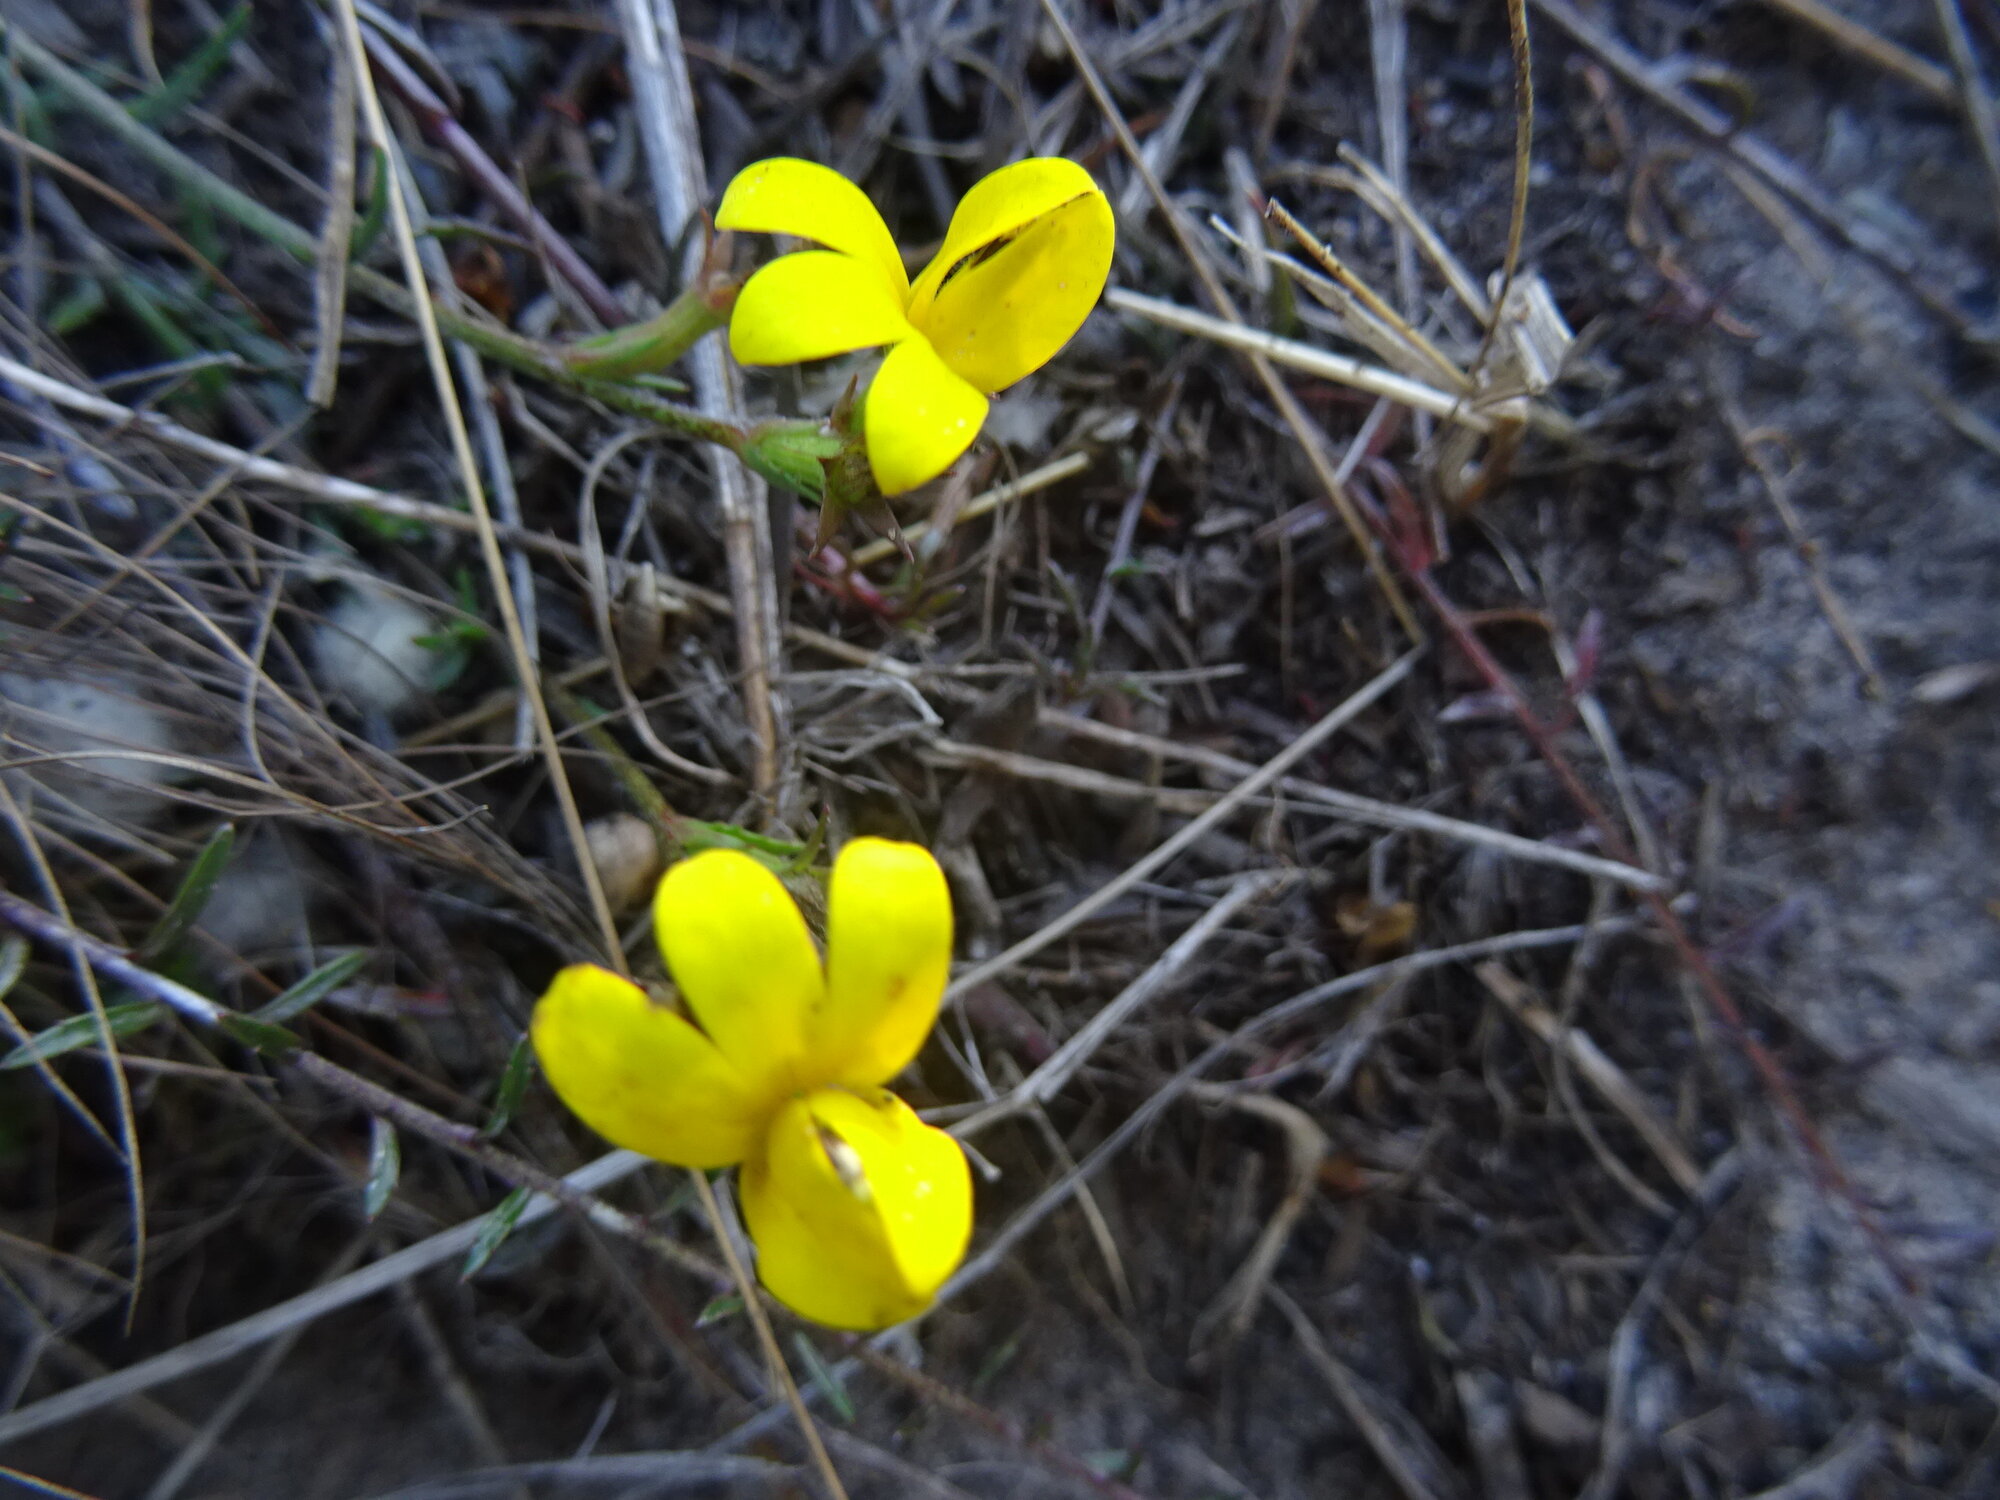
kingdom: Plantae
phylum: Tracheophyta
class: Magnoliopsida
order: Asterales
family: Campanulaceae
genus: Monopsis
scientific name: Monopsis lutea
